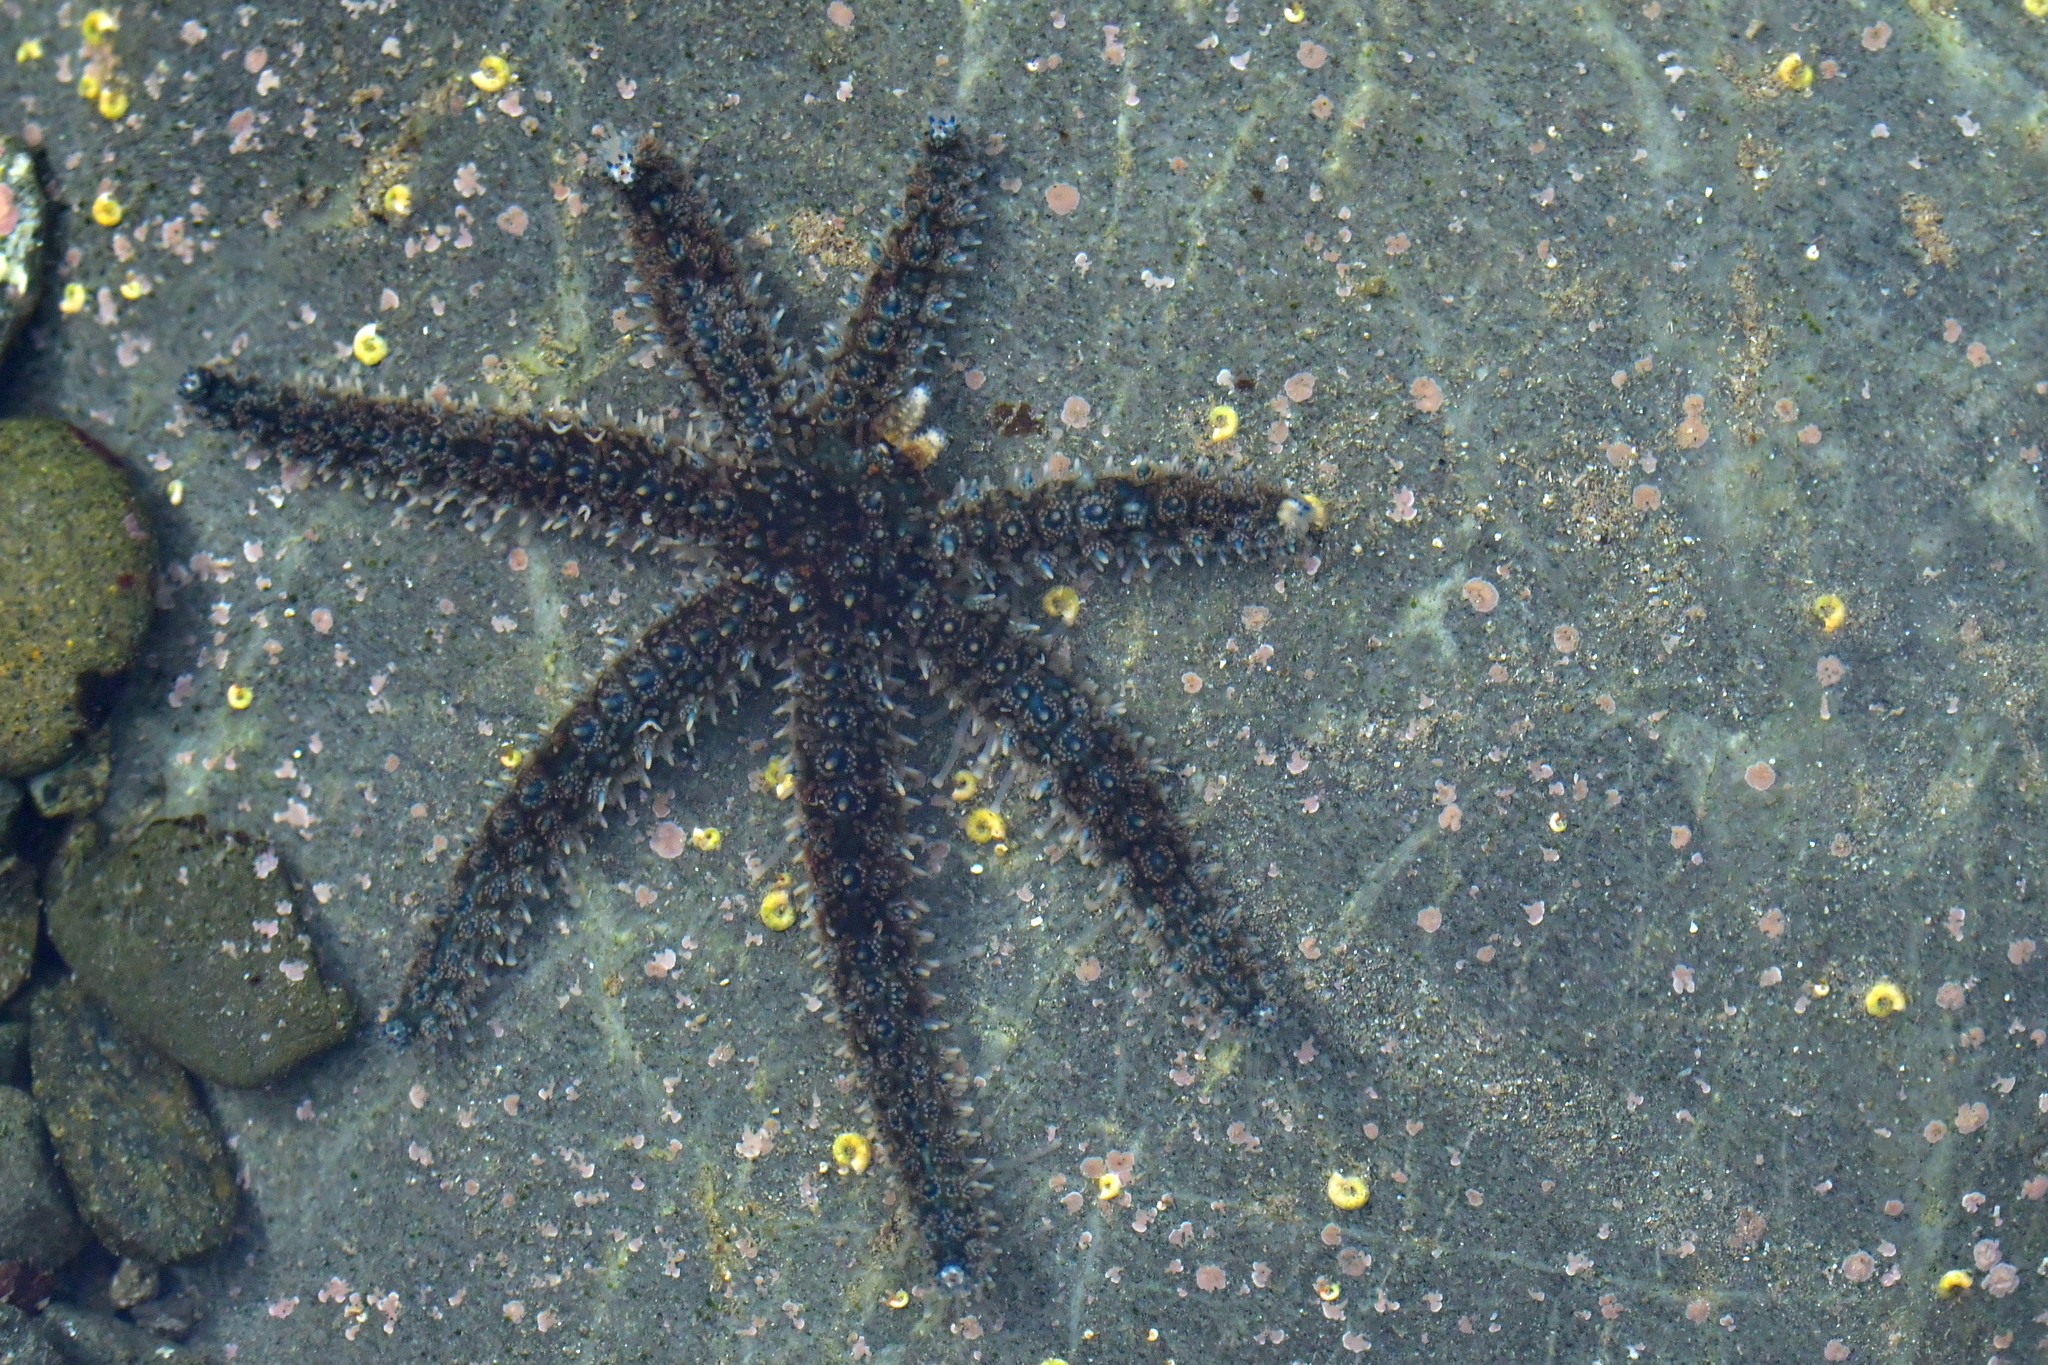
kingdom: Animalia
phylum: Echinodermata
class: Asteroidea
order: Forcipulatida
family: Asteriidae
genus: Coscinasterias
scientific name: Coscinasterias muricata
